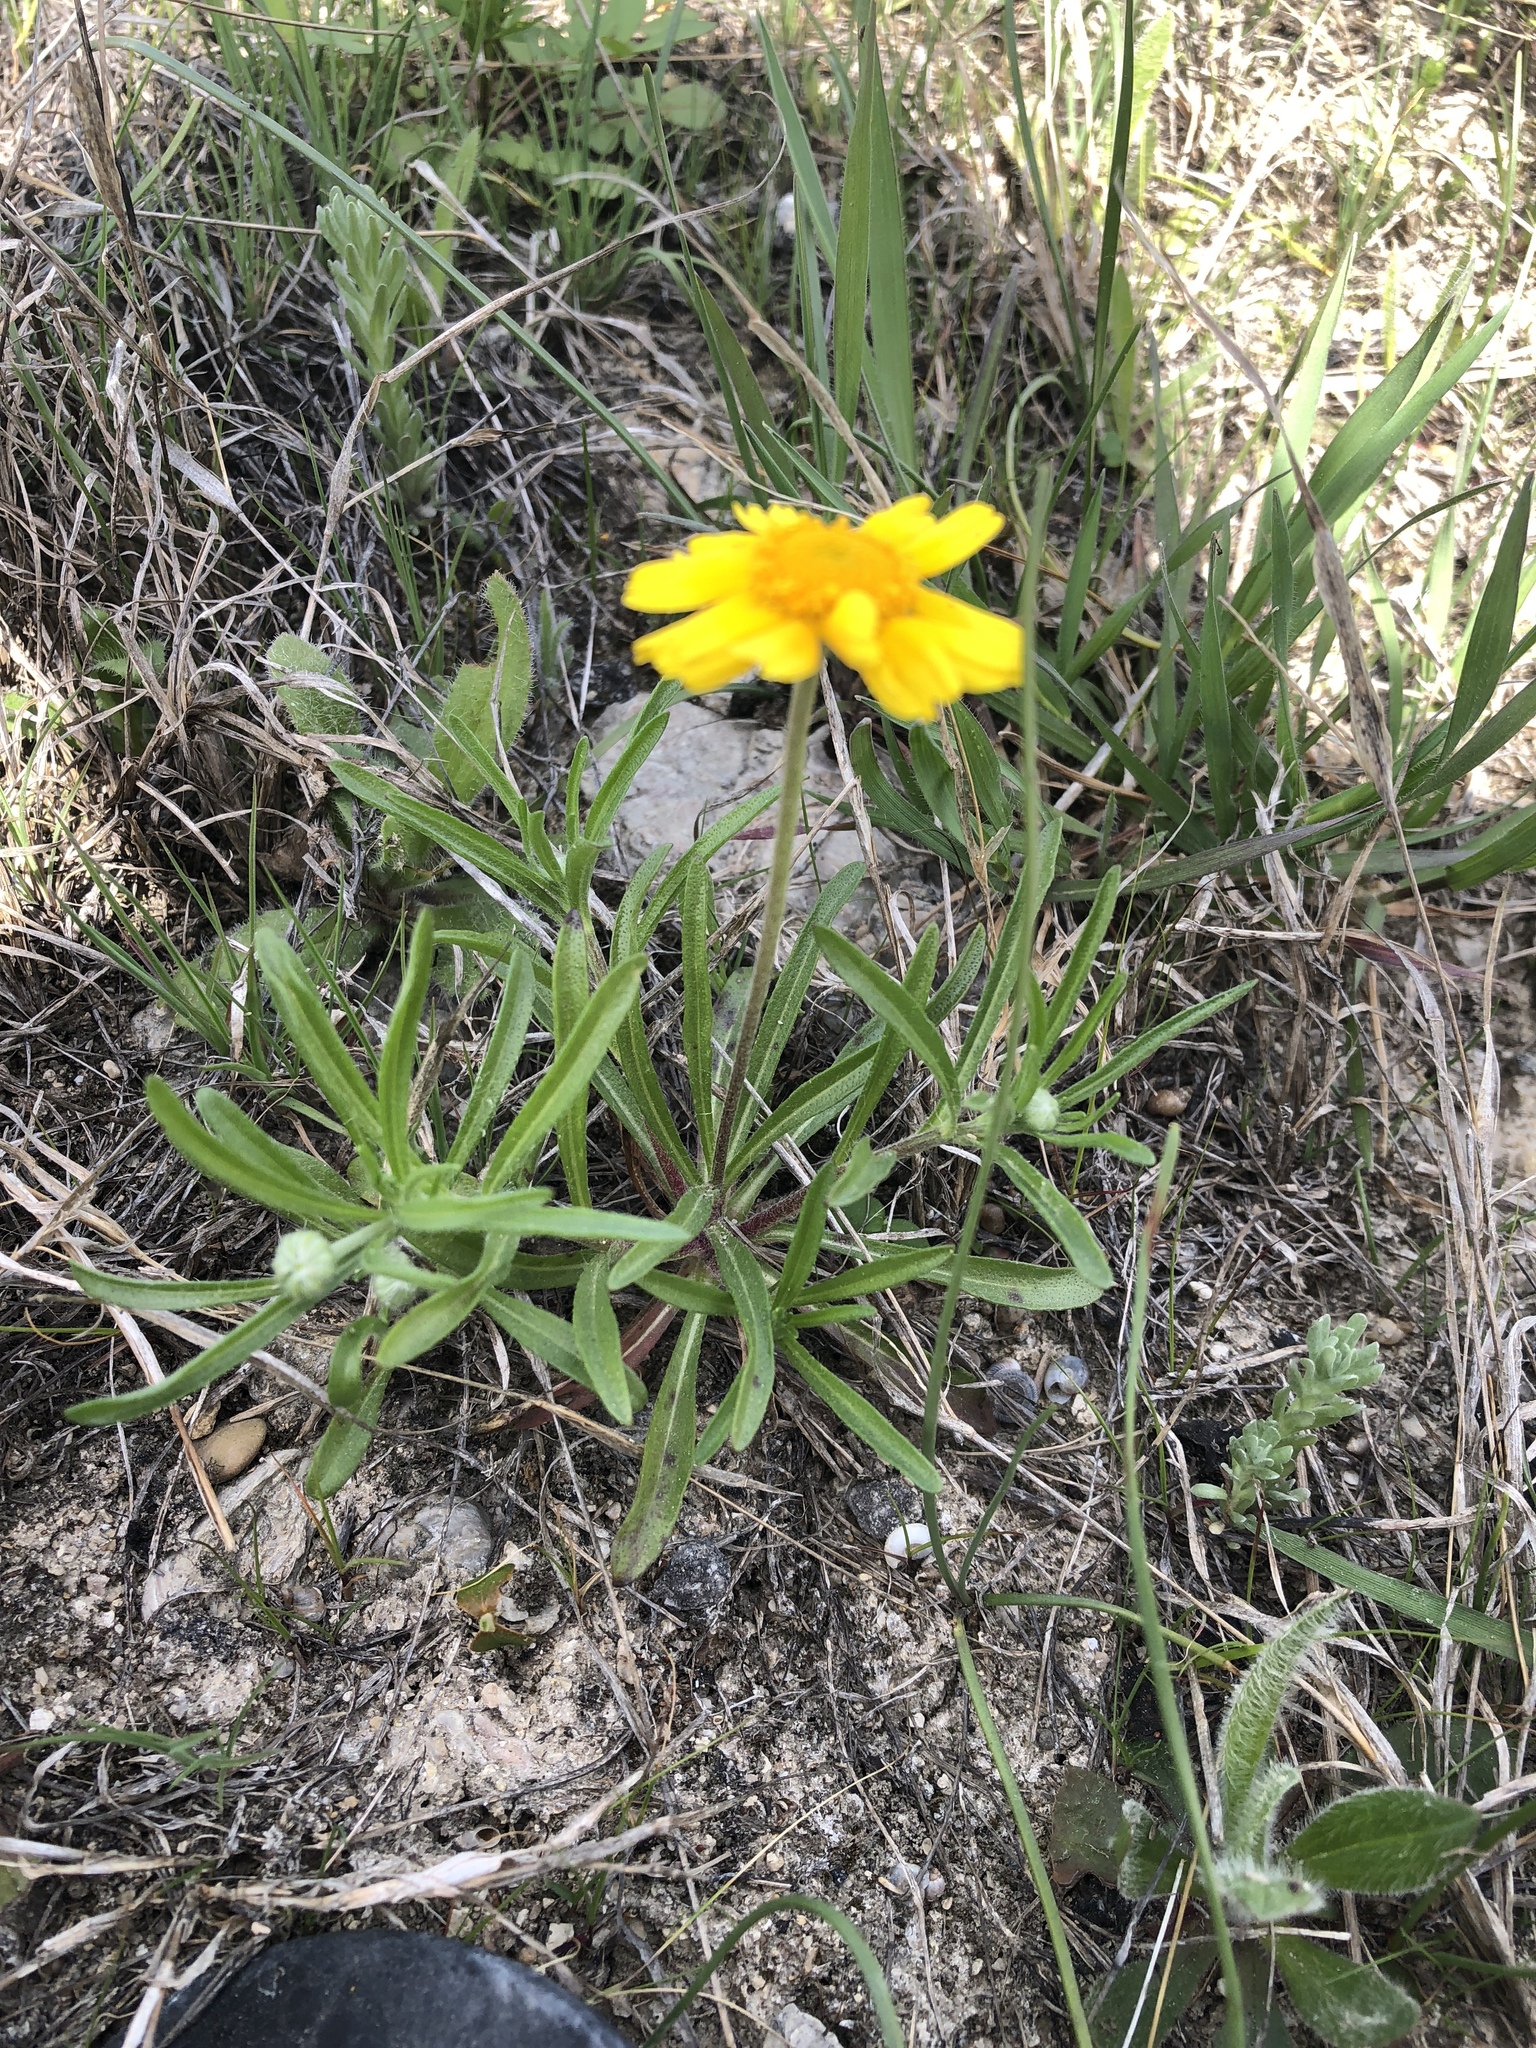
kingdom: Plantae
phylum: Tracheophyta
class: Magnoliopsida
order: Asterales
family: Asteraceae
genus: Tetraneuris
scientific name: Tetraneuris scaposa
